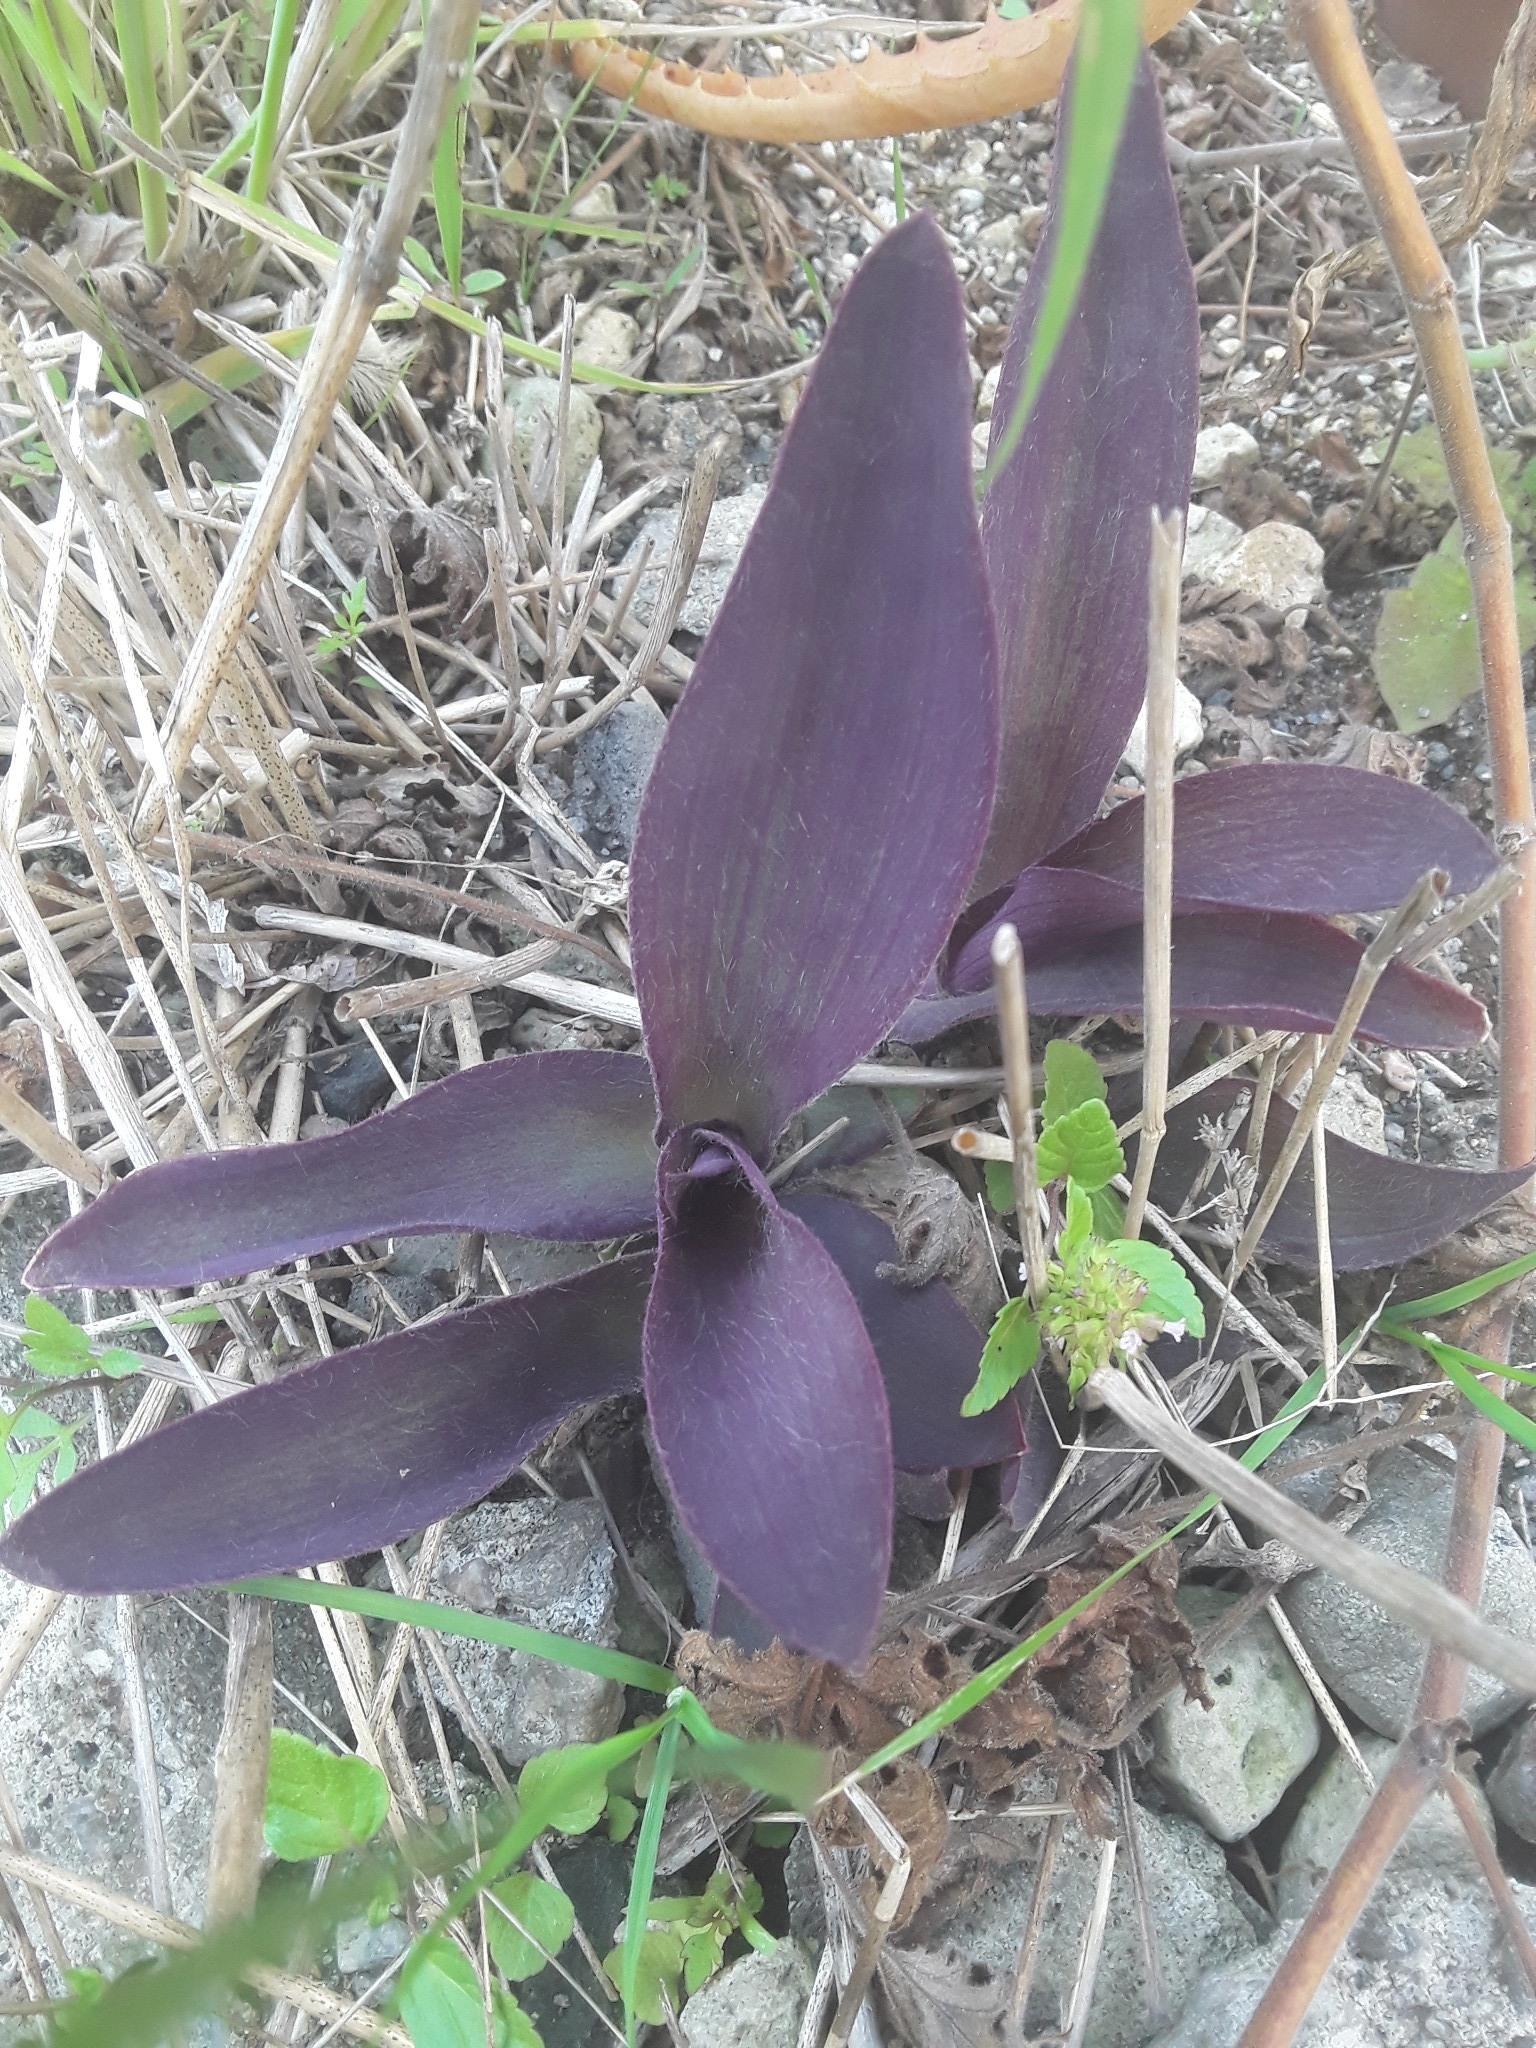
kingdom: Plantae
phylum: Tracheophyta
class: Liliopsida
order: Commelinales
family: Commelinaceae
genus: Tradescantia
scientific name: Tradescantia pallida
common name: Purpleheart
